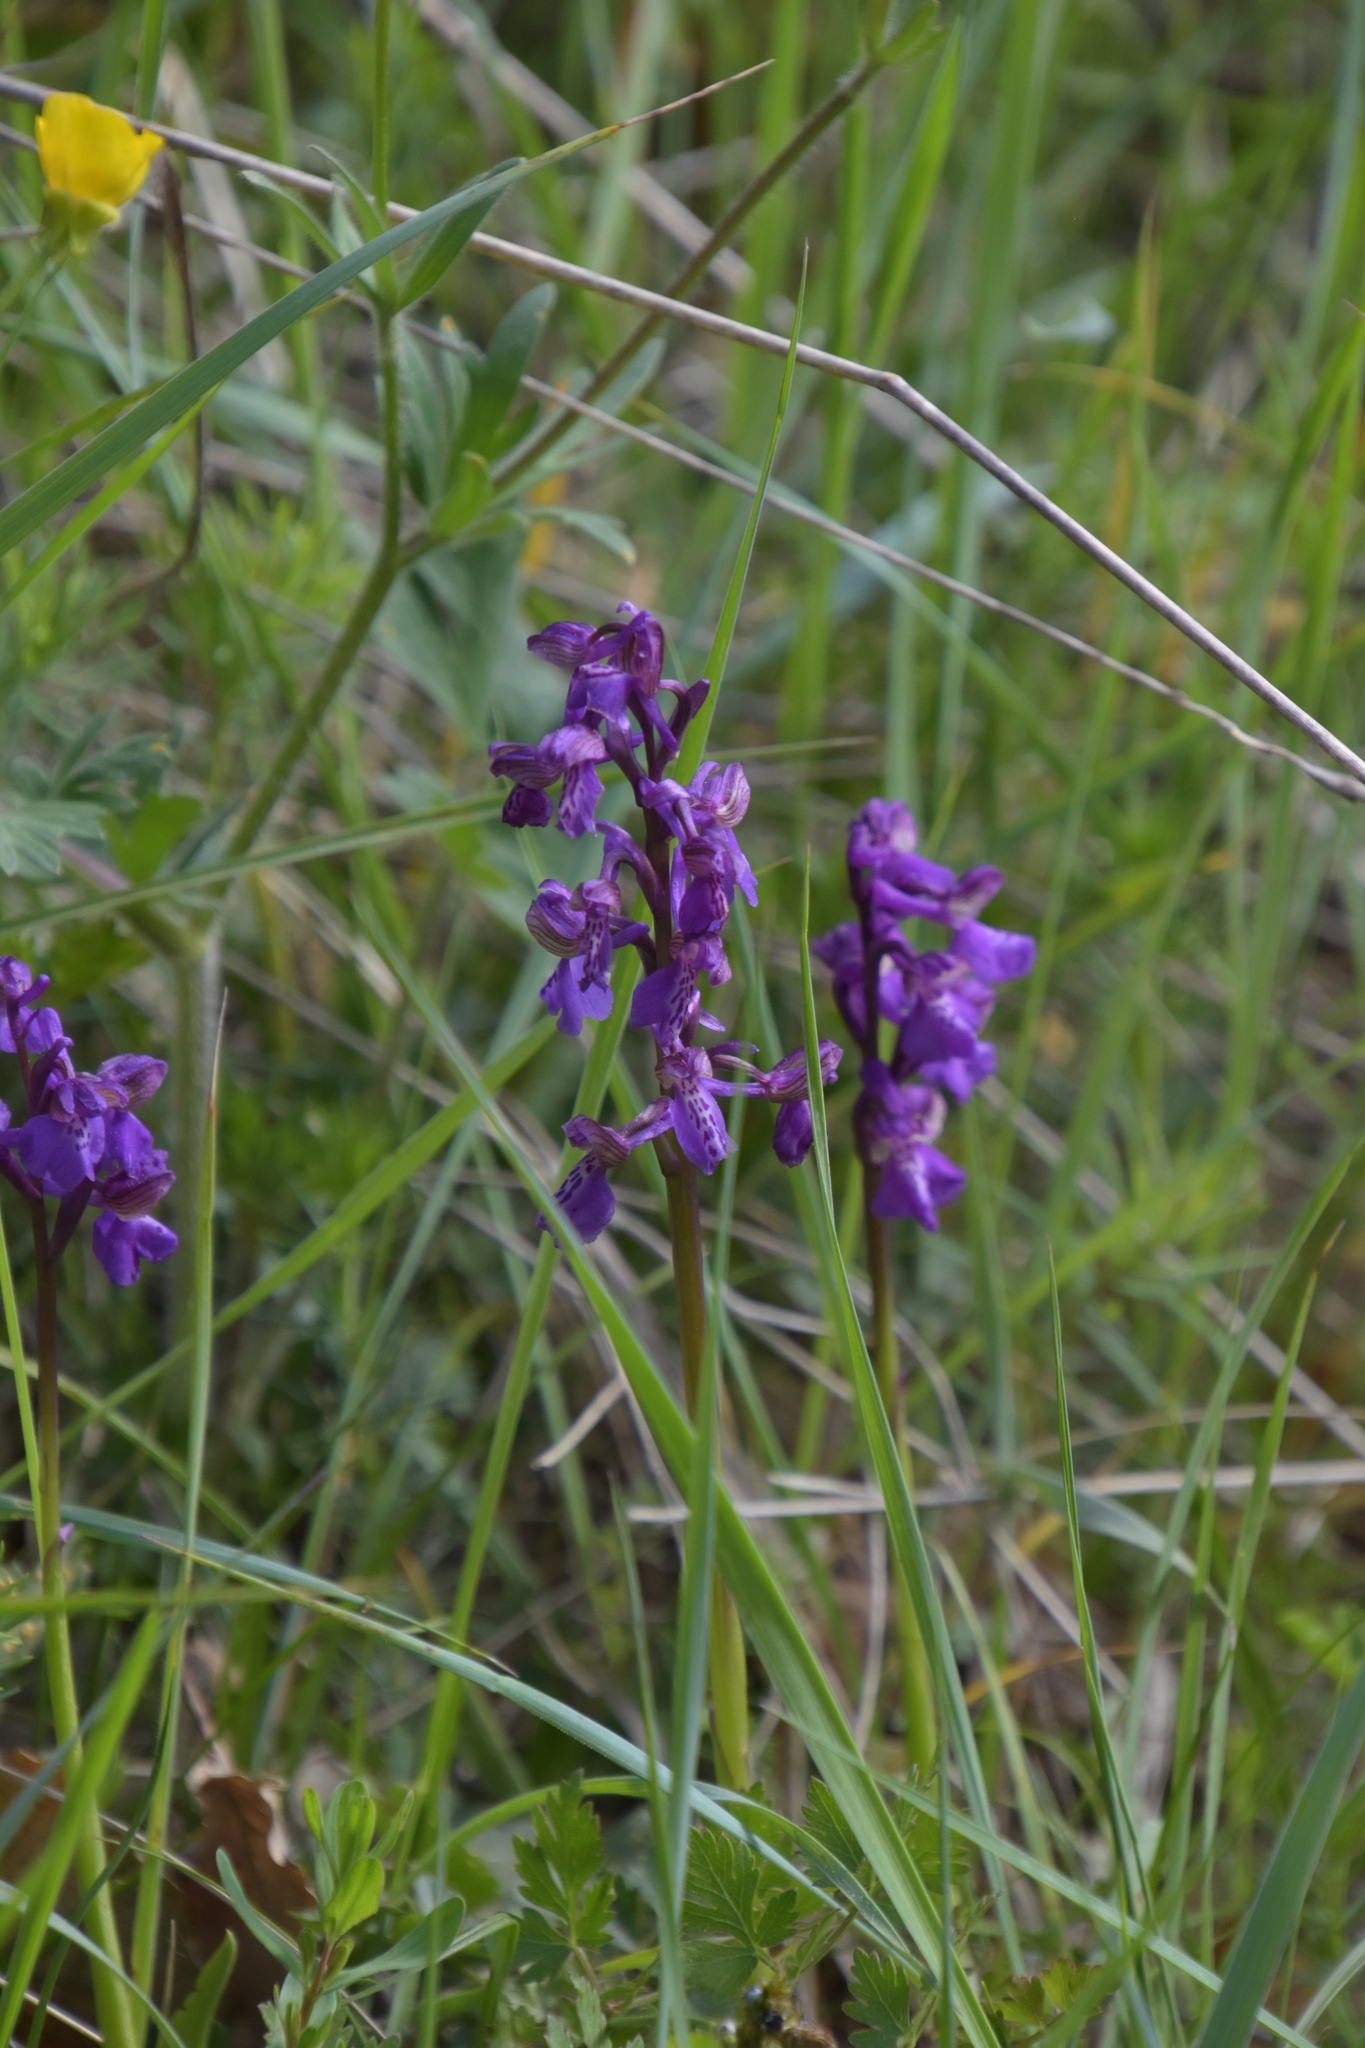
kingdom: Plantae
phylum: Tracheophyta
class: Liliopsida
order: Asparagales
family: Orchidaceae
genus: Anacamptis
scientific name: Anacamptis morio
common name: Green-winged orchid
